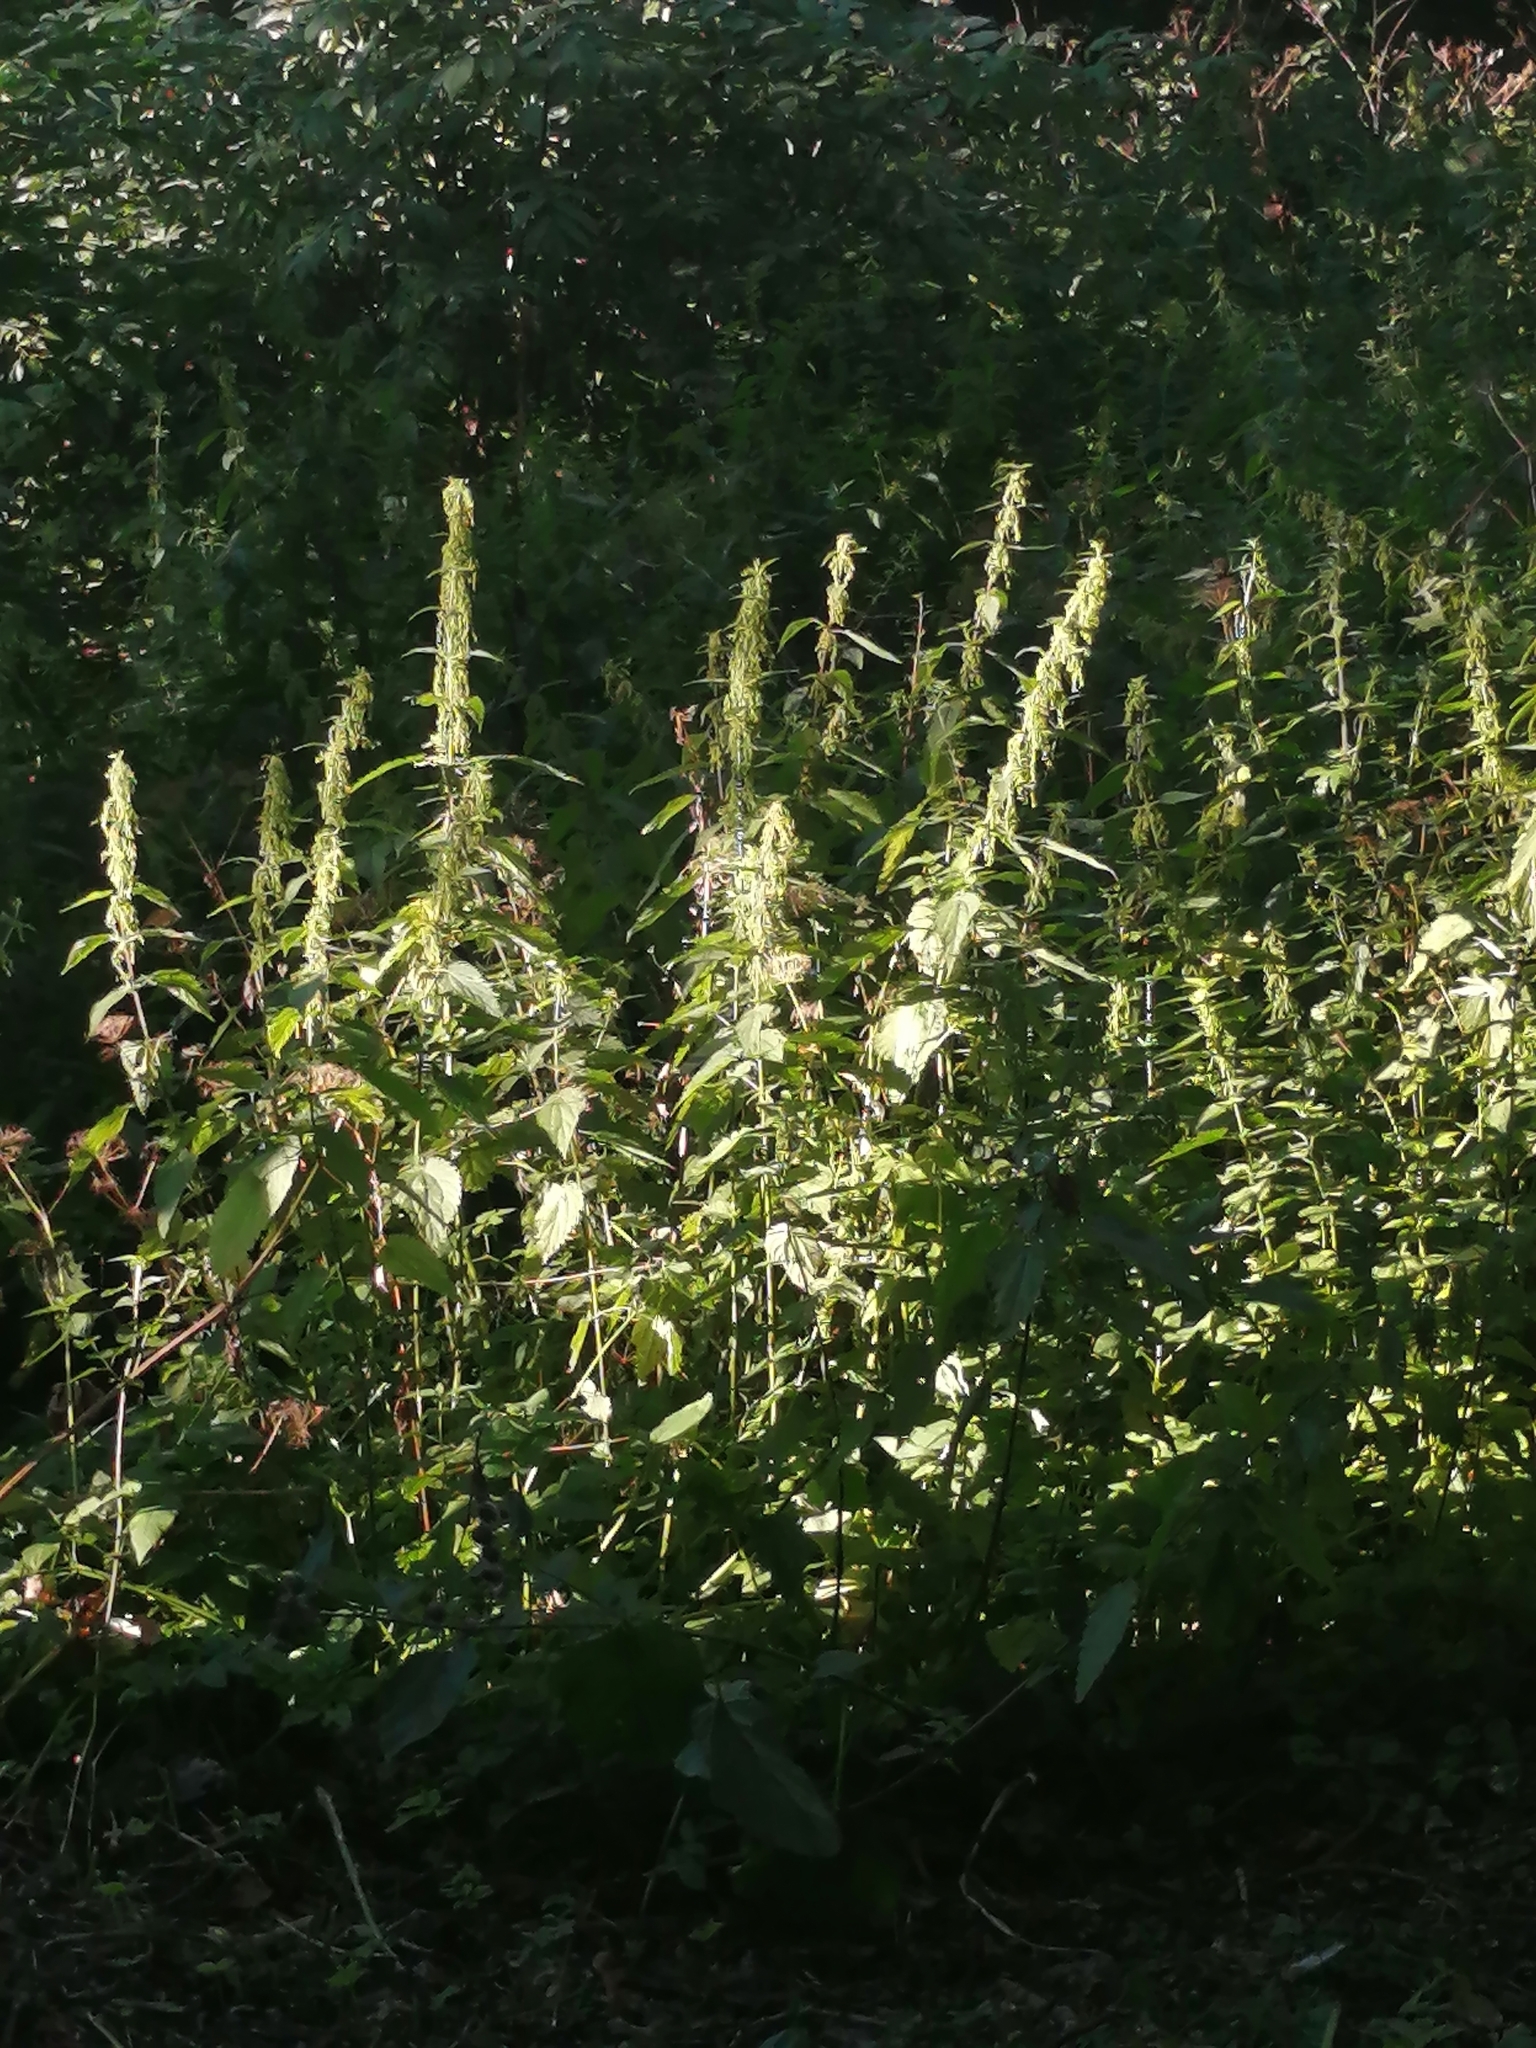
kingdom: Plantae
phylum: Tracheophyta
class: Magnoliopsida
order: Rosales
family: Urticaceae
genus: Urtica
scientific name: Urtica dioica
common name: Common nettle
